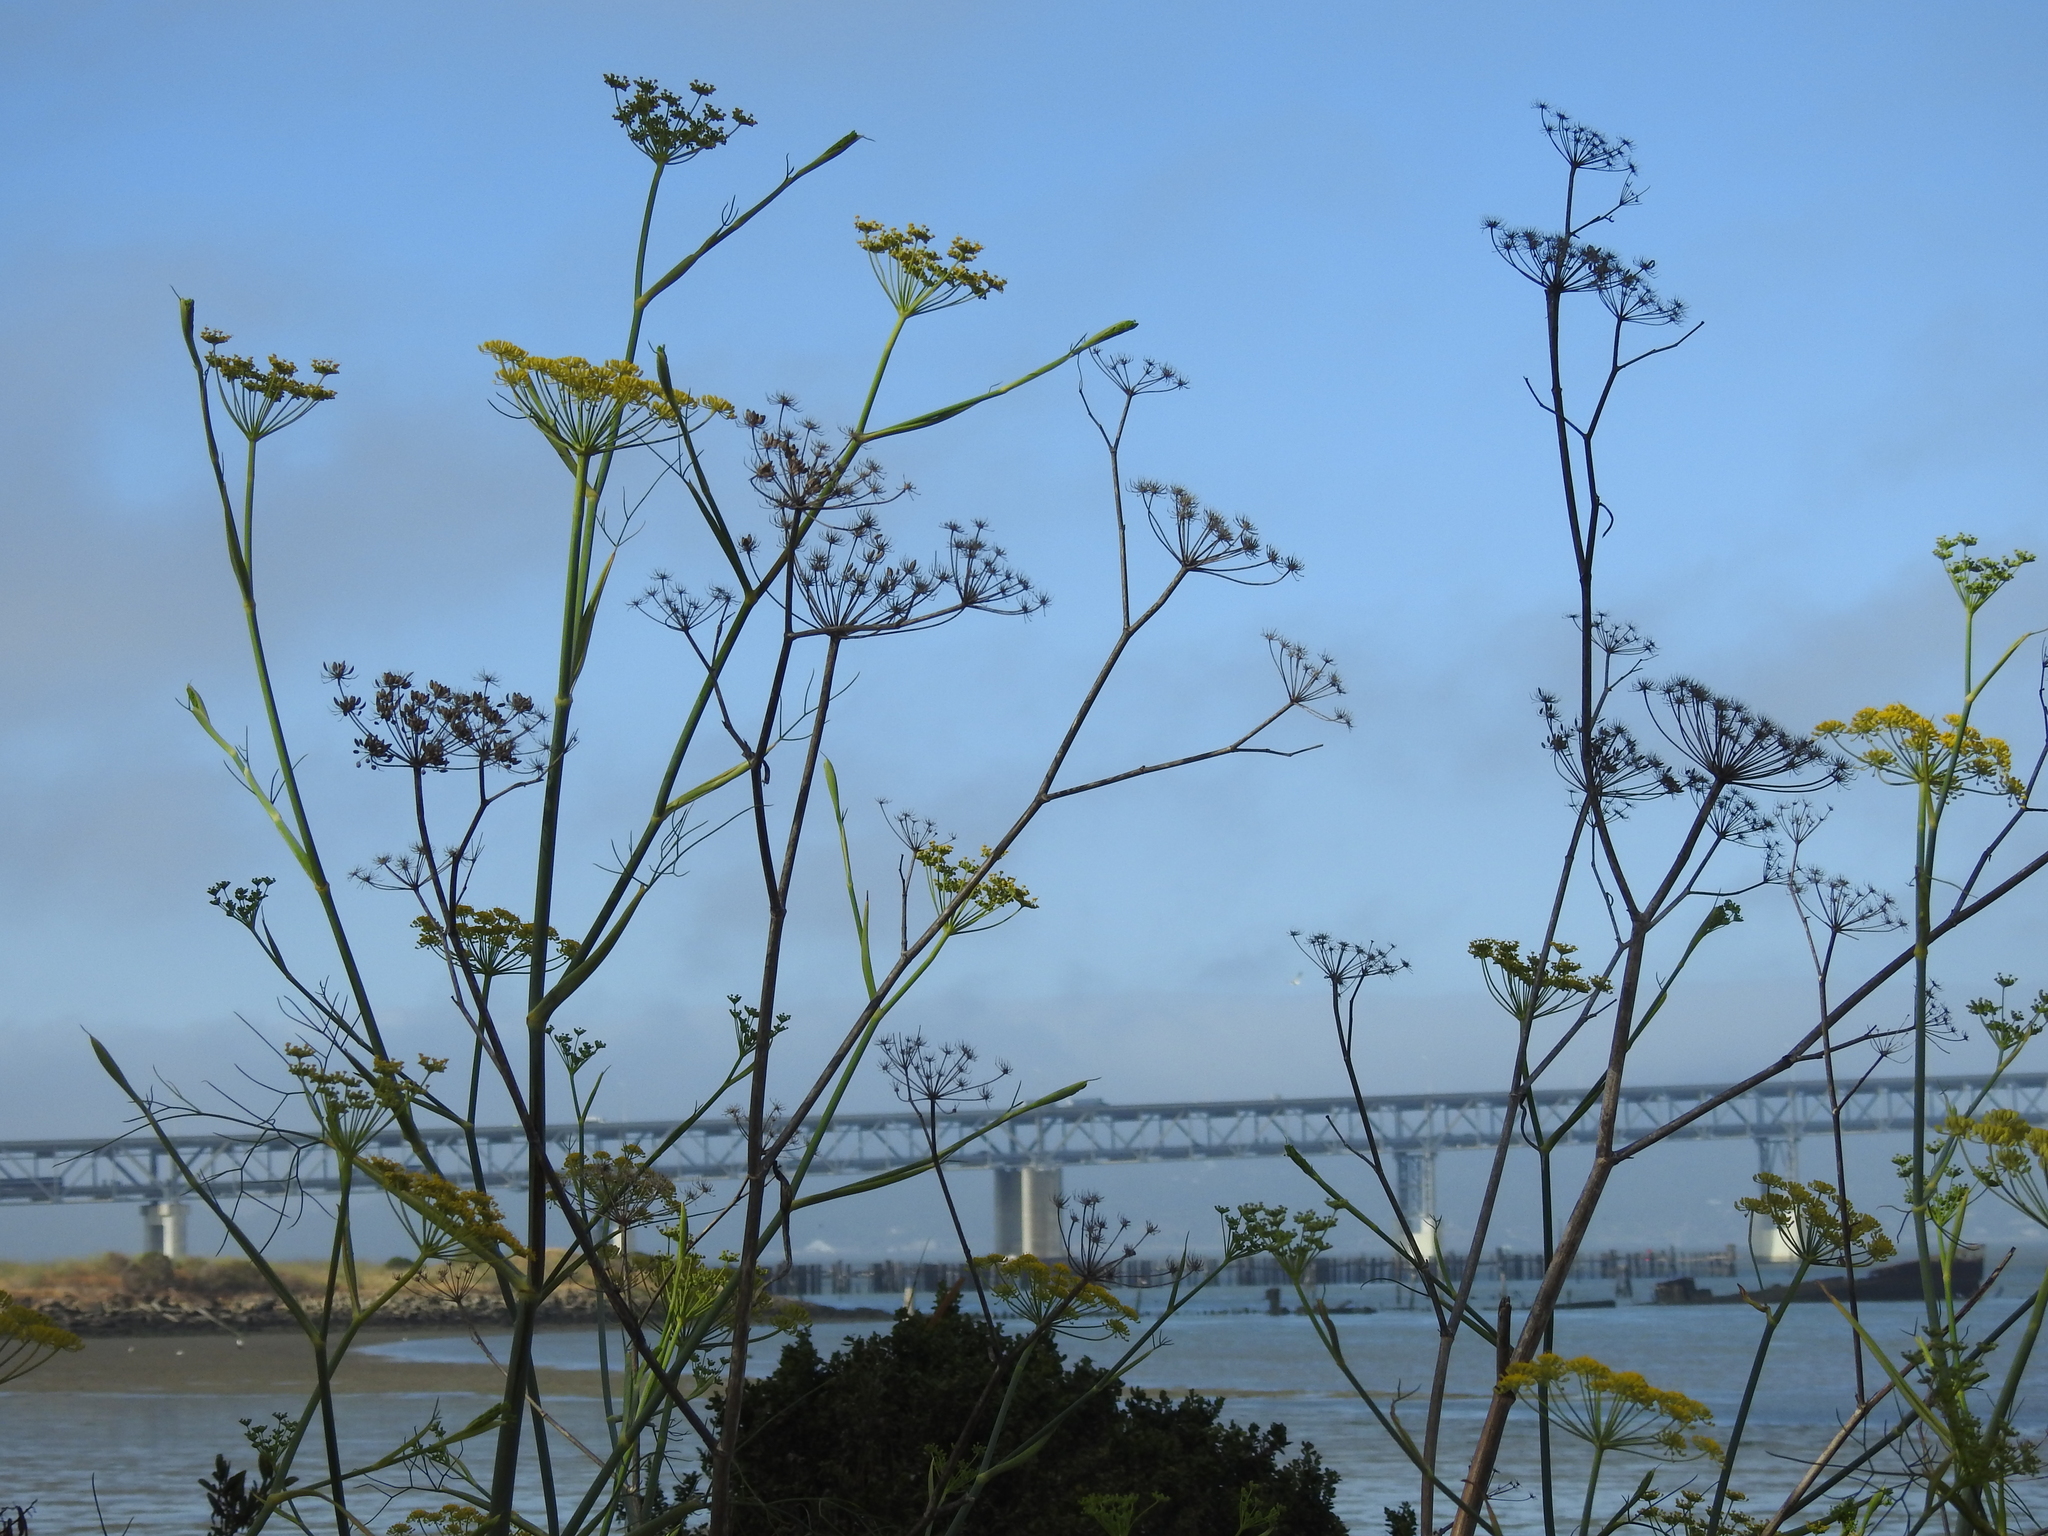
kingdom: Plantae
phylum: Tracheophyta
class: Magnoliopsida
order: Apiales
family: Apiaceae
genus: Foeniculum
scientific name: Foeniculum vulgare
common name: Fennel
